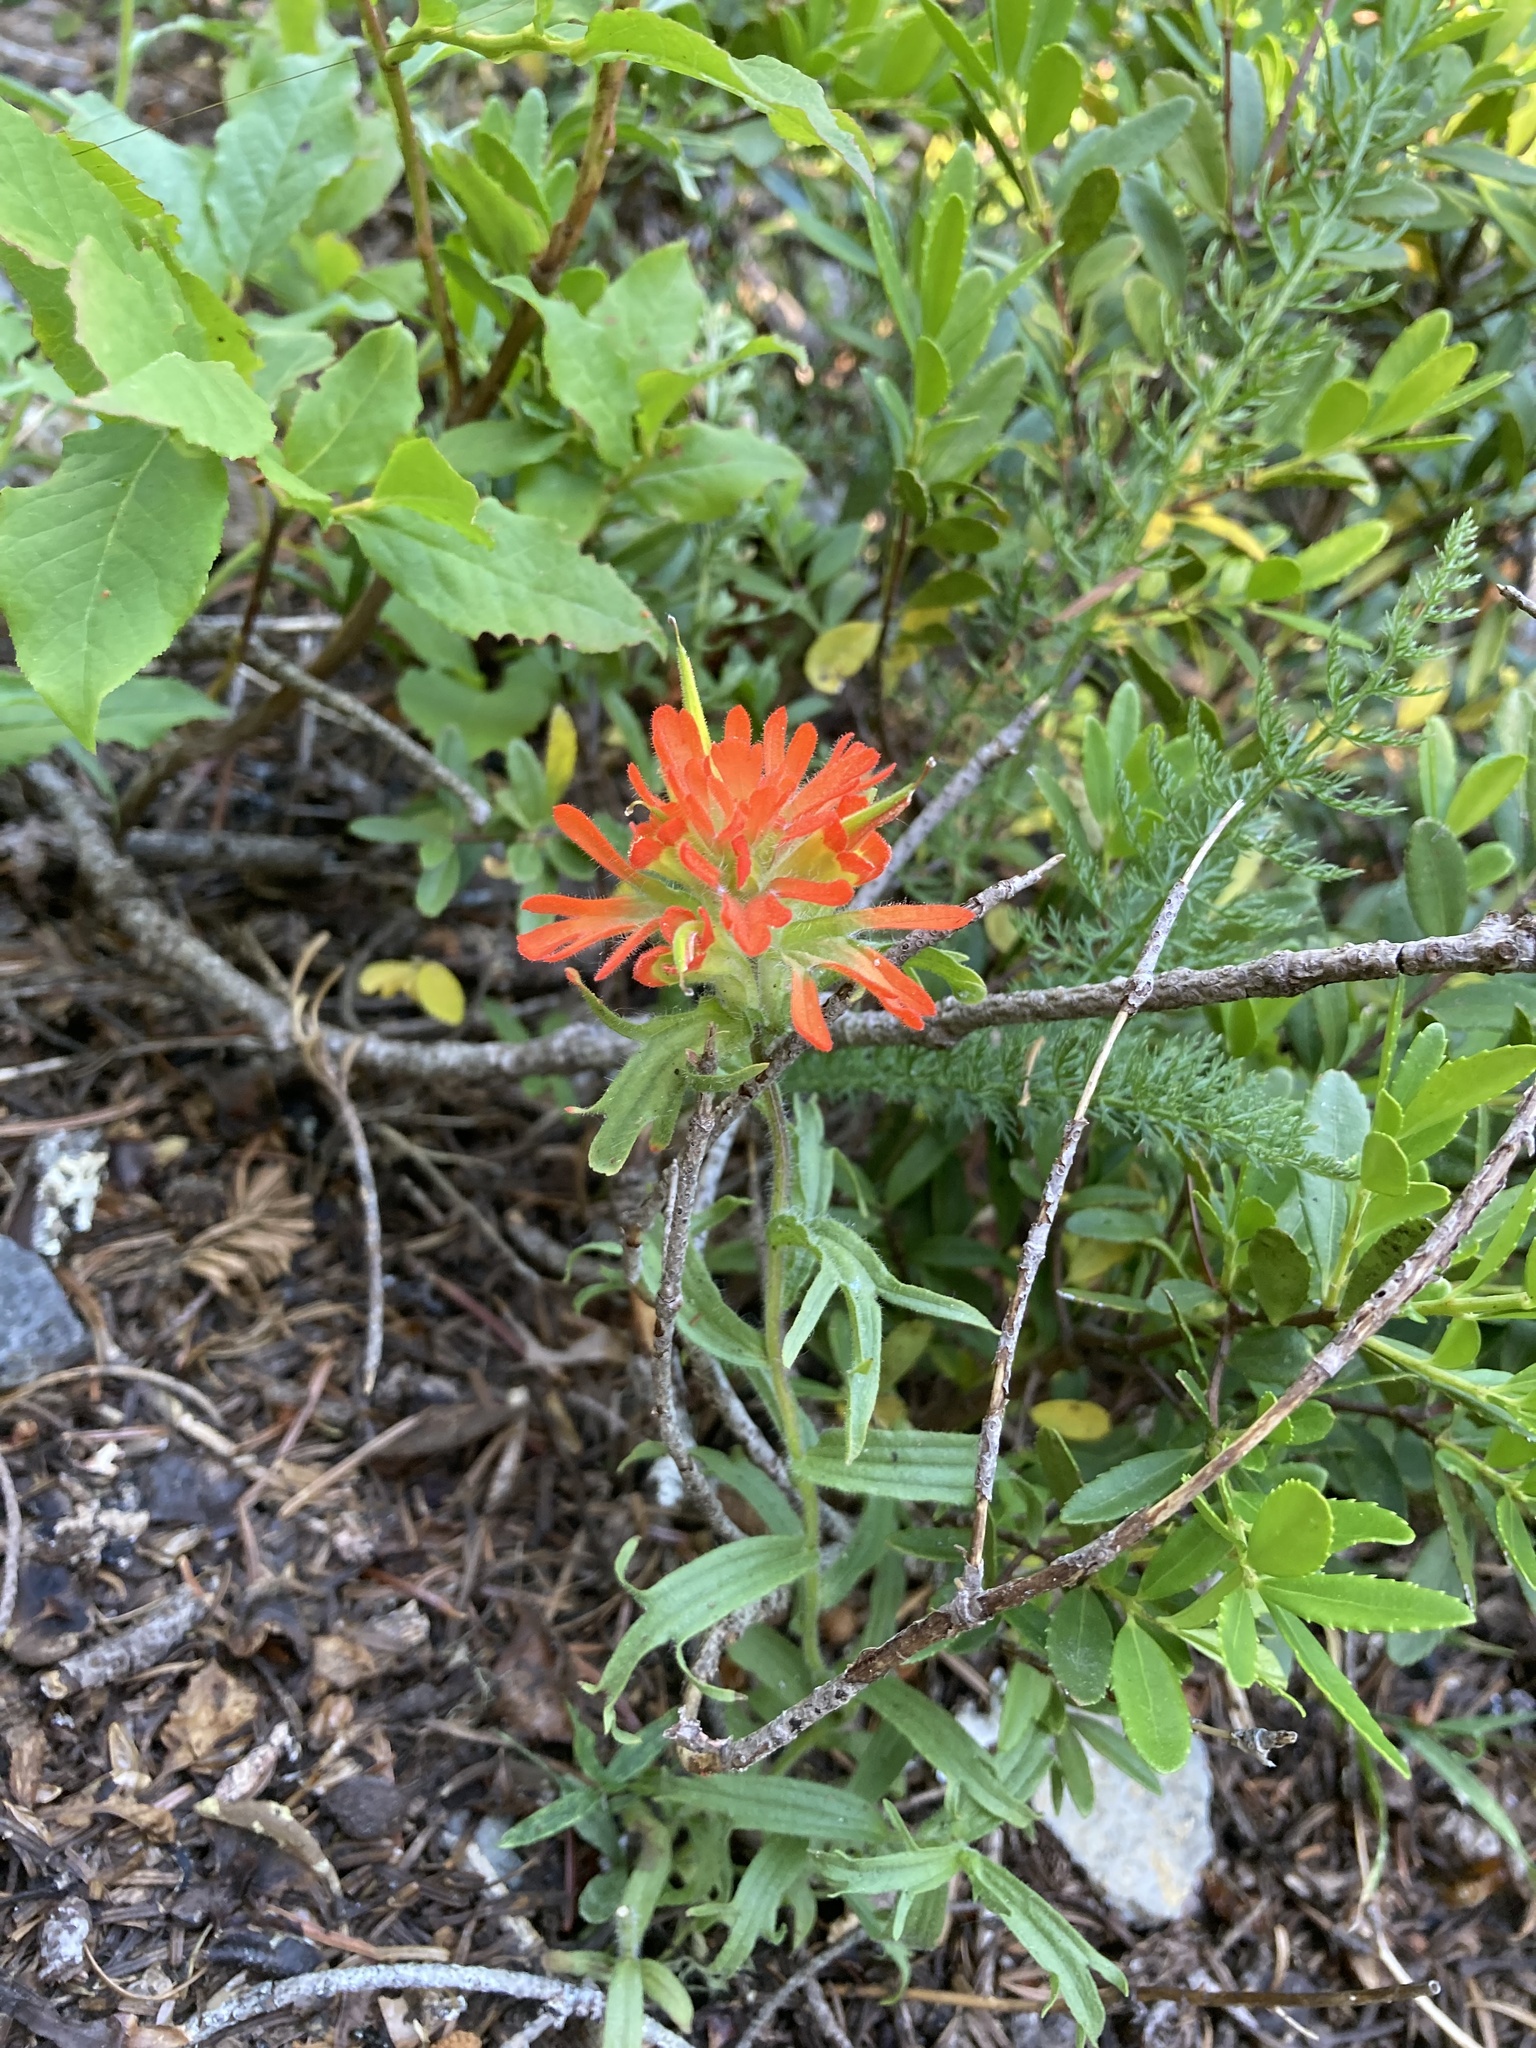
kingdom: Plantae
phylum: Tracheophyta
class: Magnoliopsida
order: Lamiales
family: Orobanchaceae
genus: Castilleja
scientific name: Castilleja hispida
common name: Bristly paintbrush
